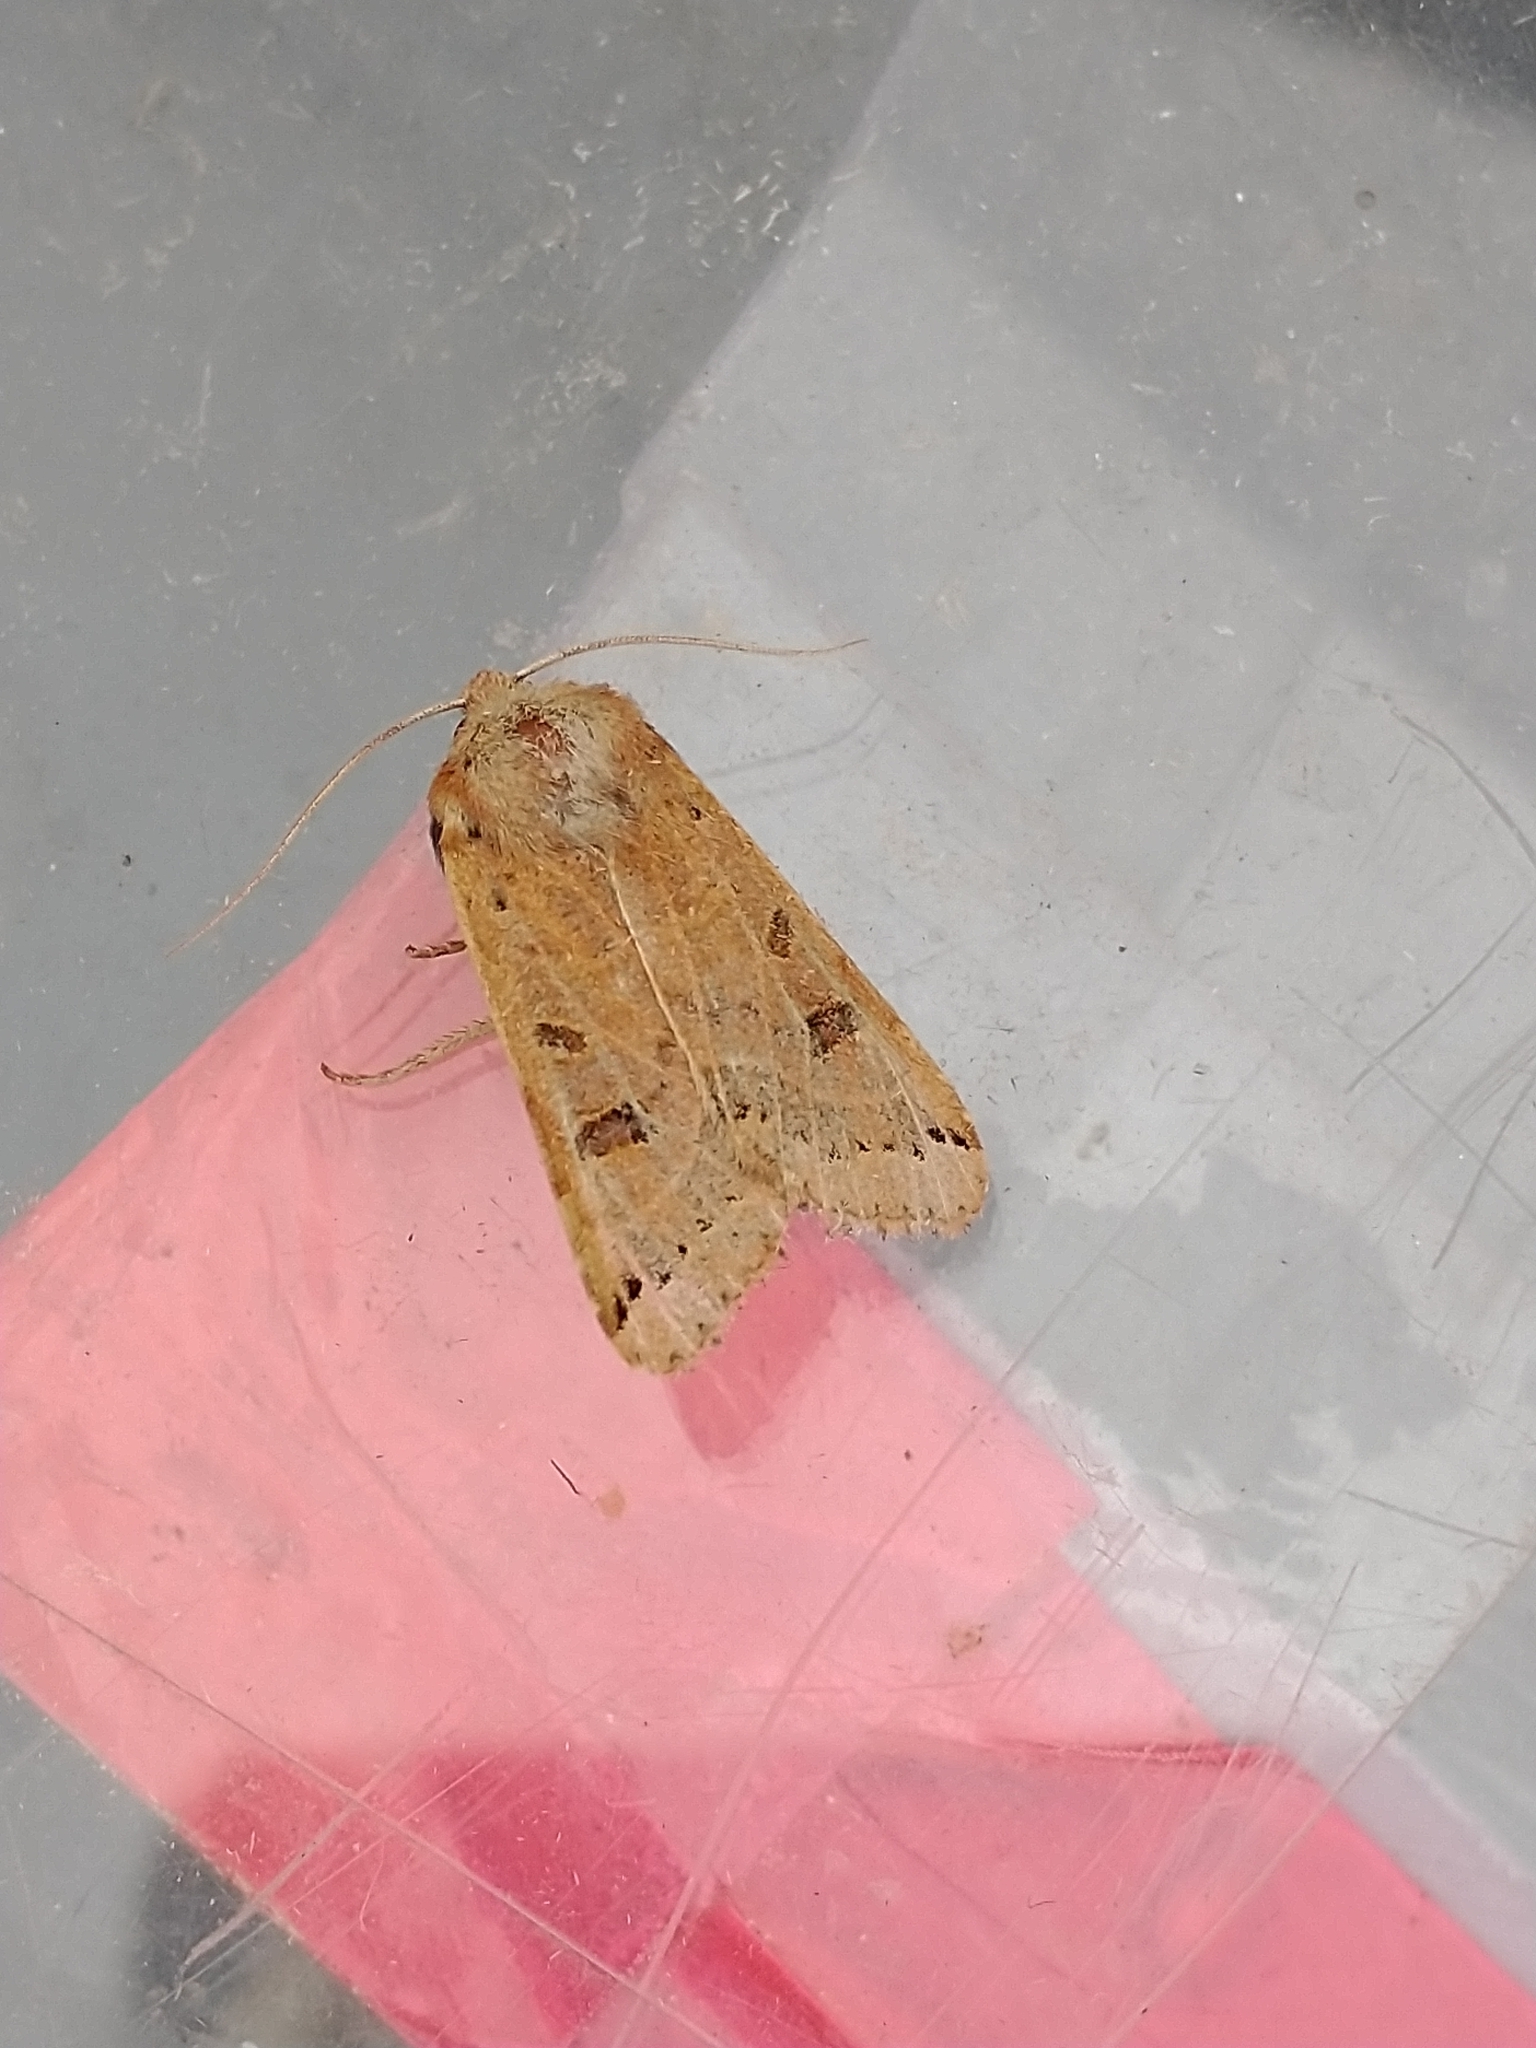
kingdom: Animalia
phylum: Arthropoda
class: Insecta
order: Lepidoptera
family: Noctuidae
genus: Agrochola
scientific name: Agrochola lunosa
